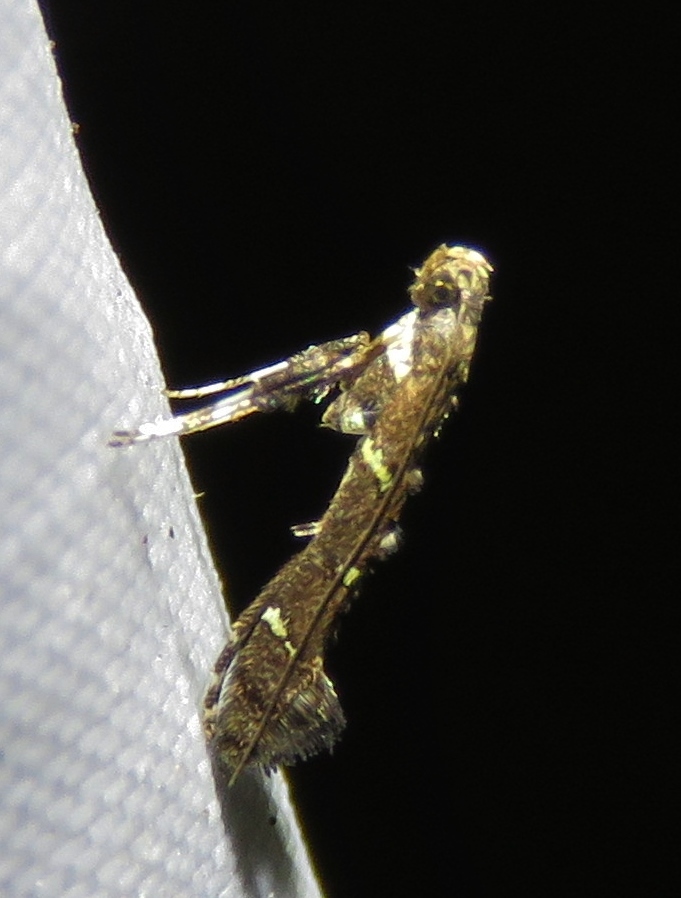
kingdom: Animalia
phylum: Arthropoda
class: Insecta
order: Lepidoptera
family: Gracillariidae
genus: Caloptilia
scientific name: Caloptilia triadicae
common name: Tallow leaf roller
